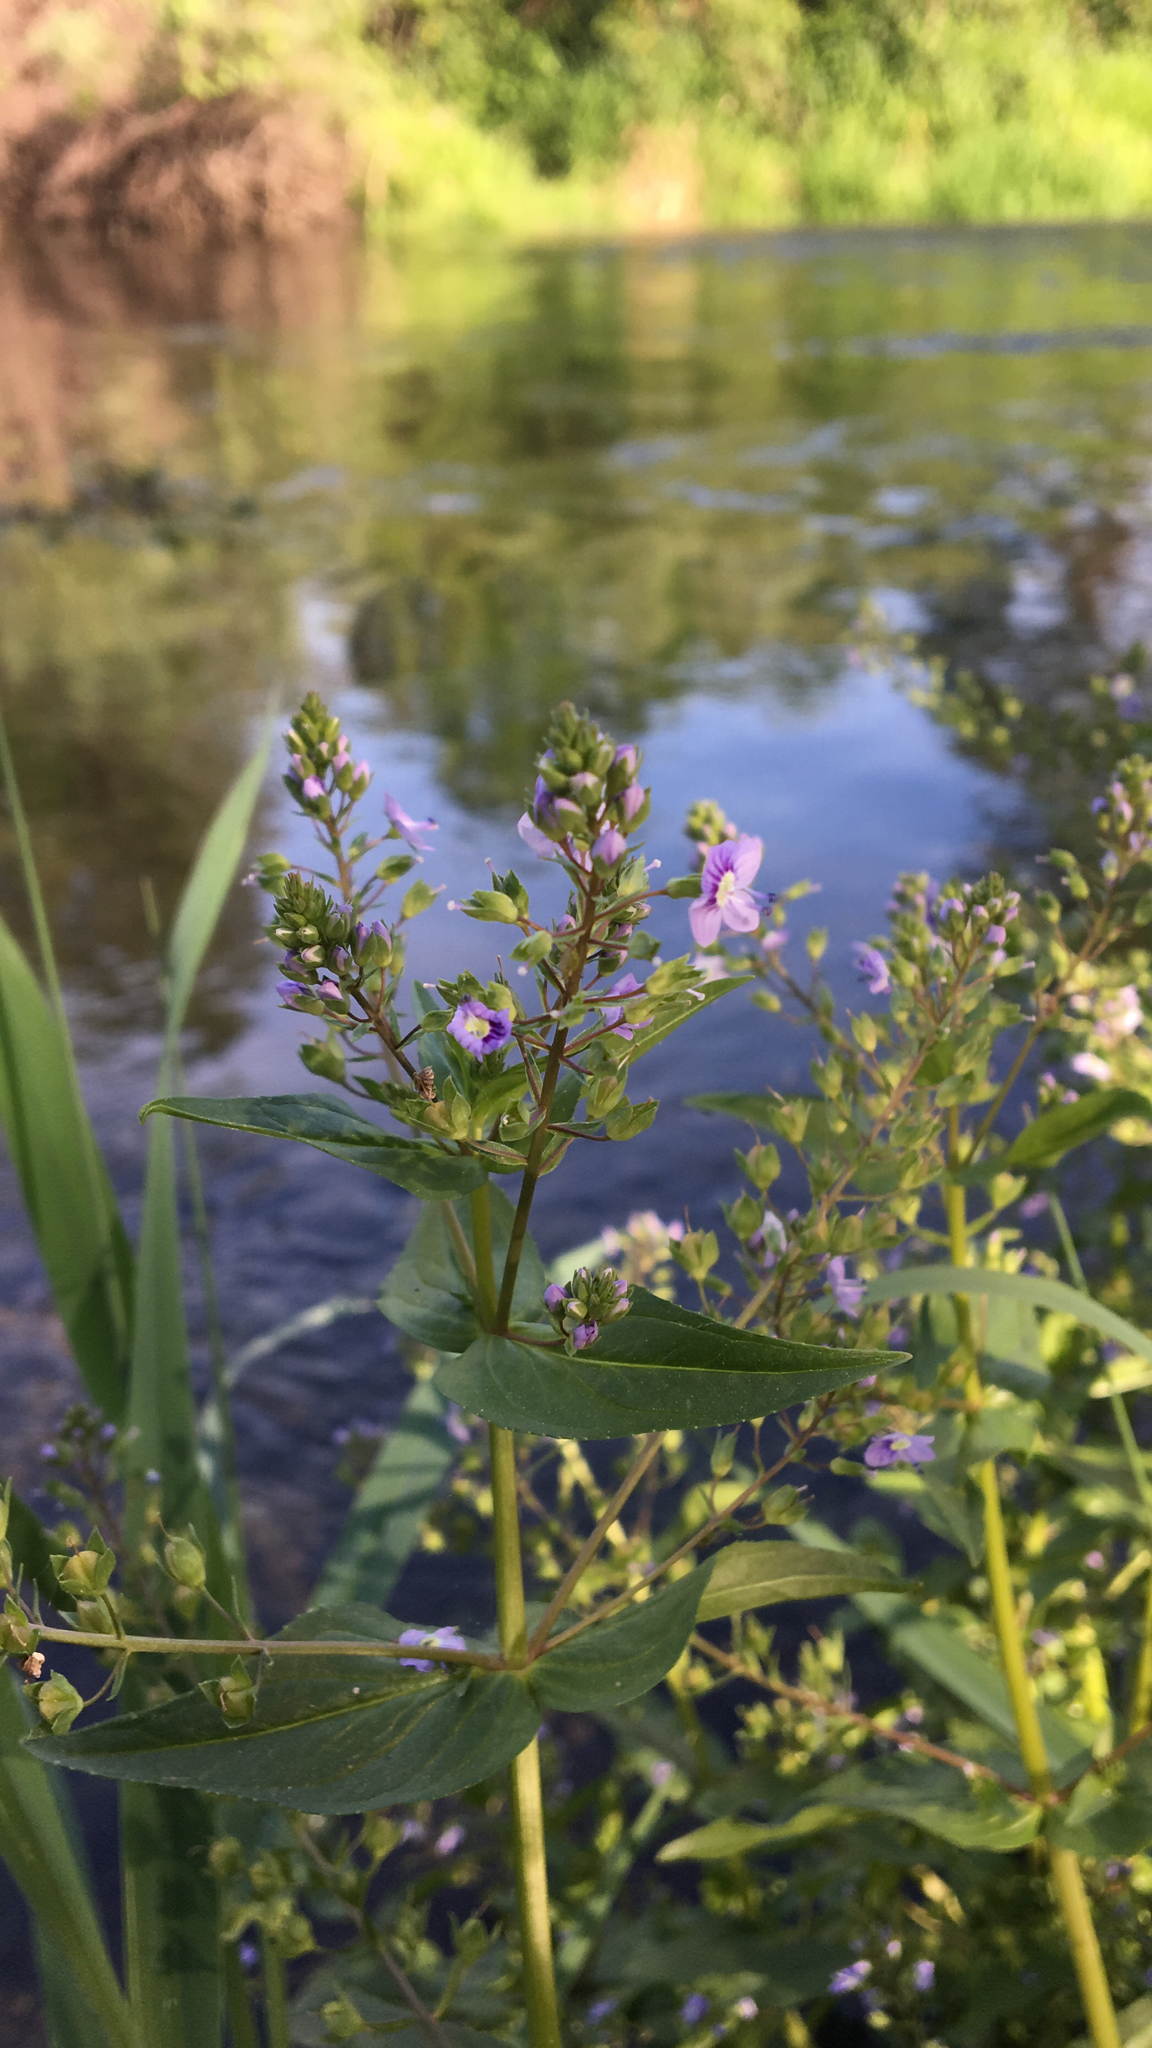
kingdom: Plantae
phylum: Tracheophyta
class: Magnoliopsida
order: Lamiales
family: Plantaginaceae
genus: Veronica
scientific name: Veronica anagallis-aquatica
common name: Water speedwell
